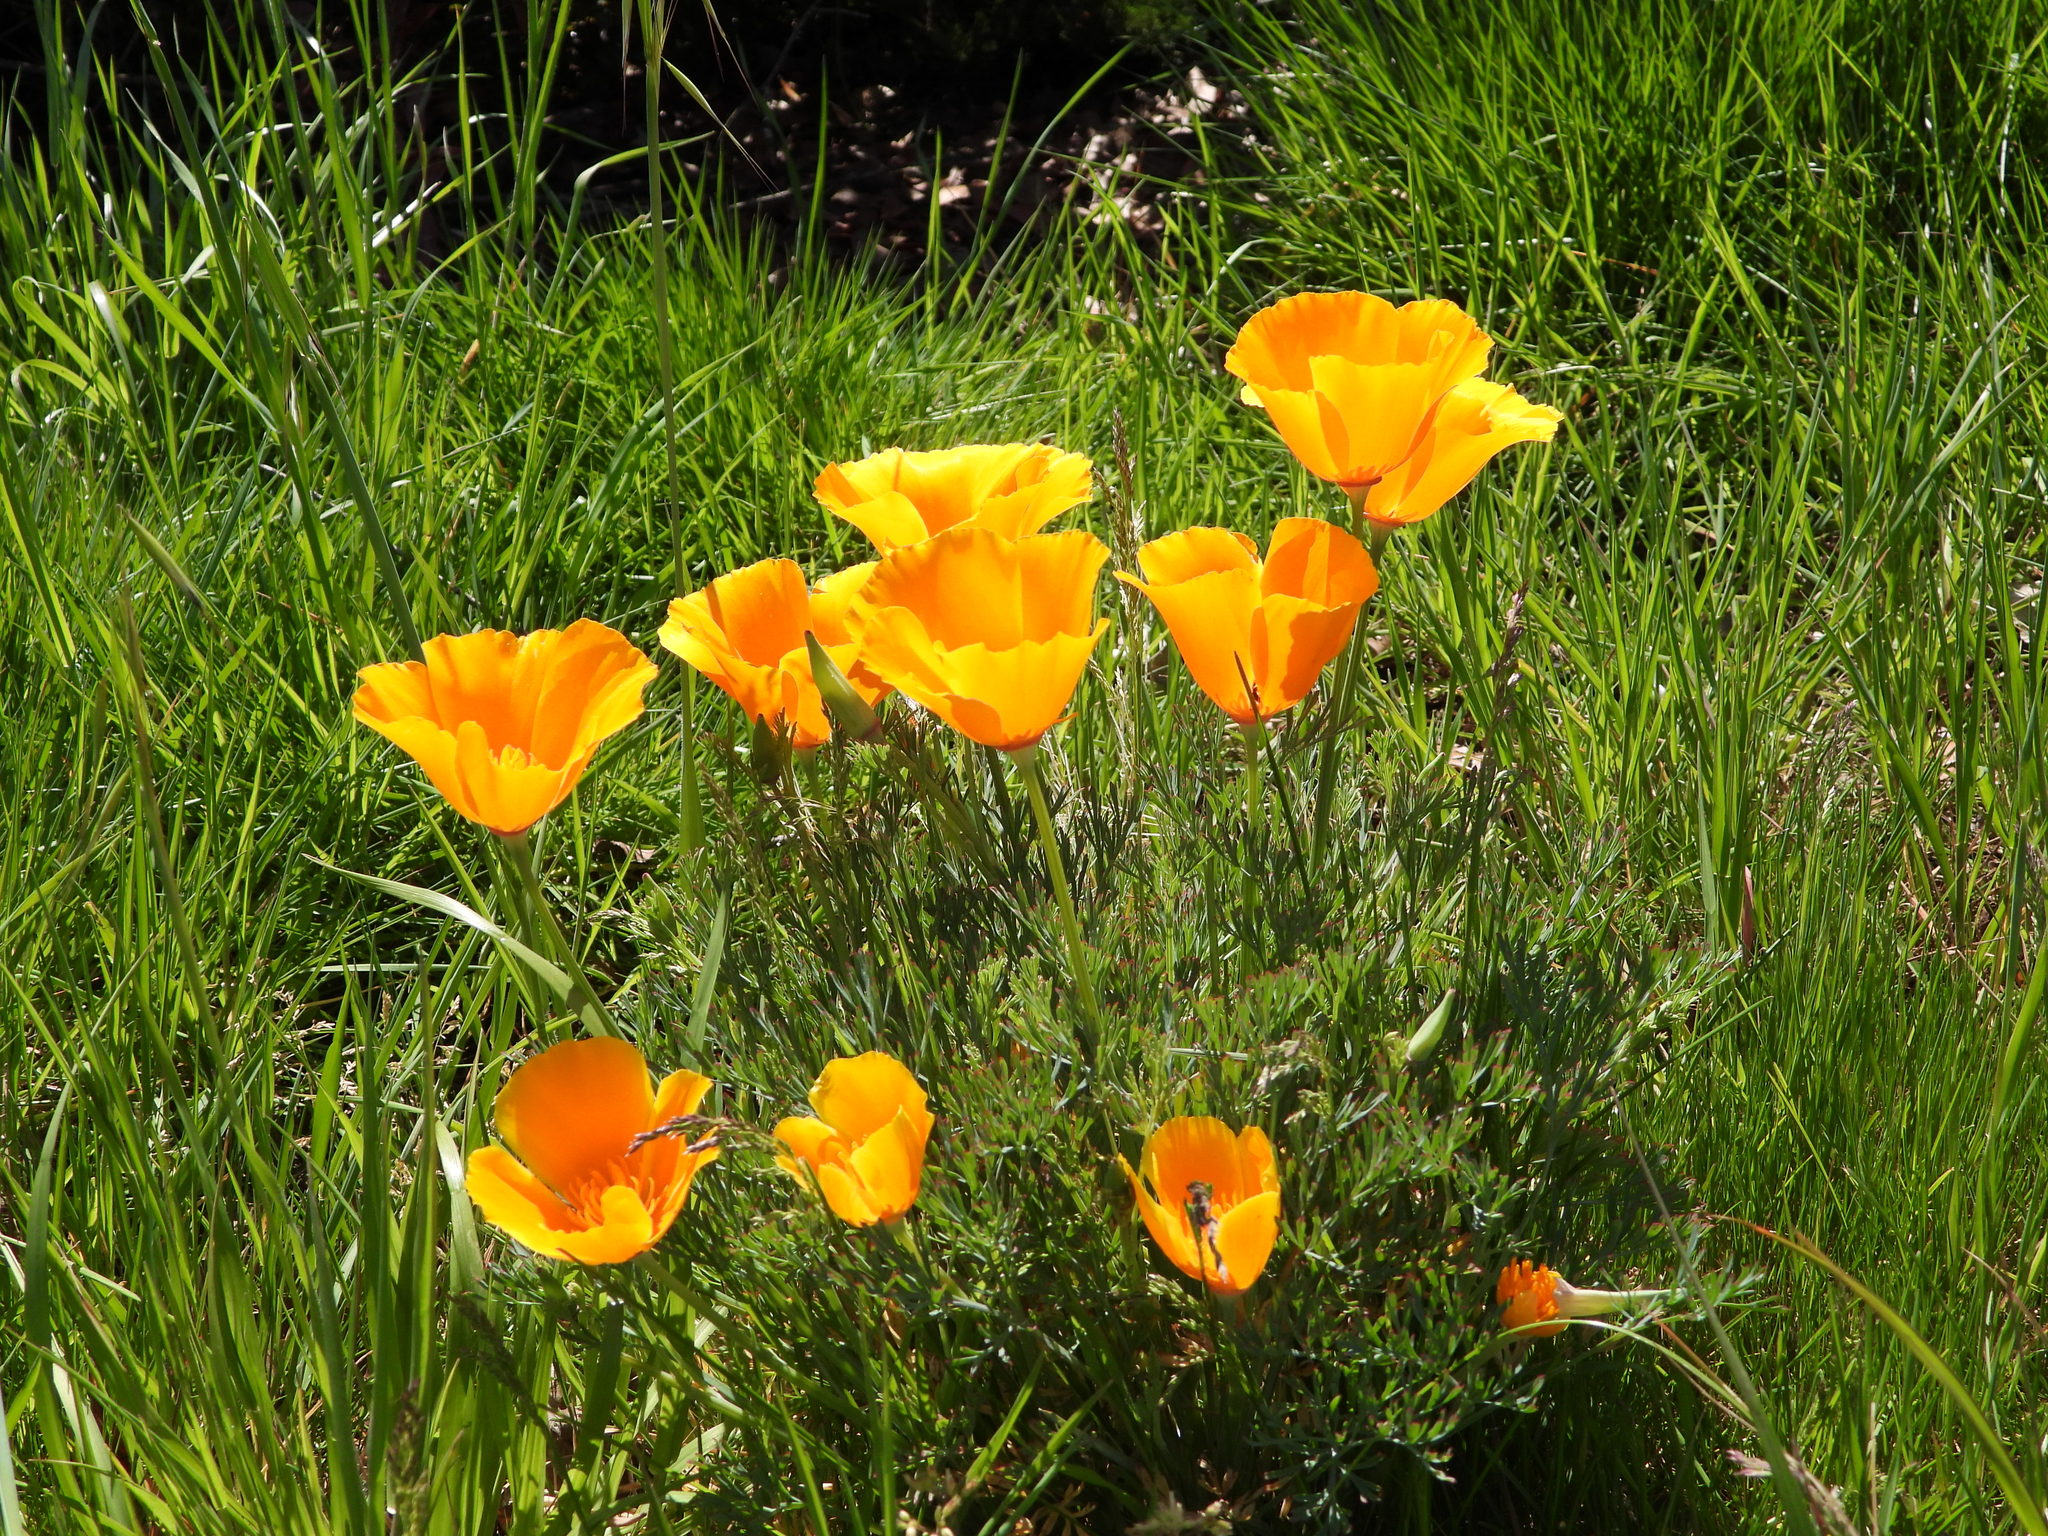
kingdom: Plantae
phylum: Tracheophyta
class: Magnoliopsida
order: Ranunculales
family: Papaveraceae
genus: Eschscholzia
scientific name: Eschscholzia californica
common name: California poppy
